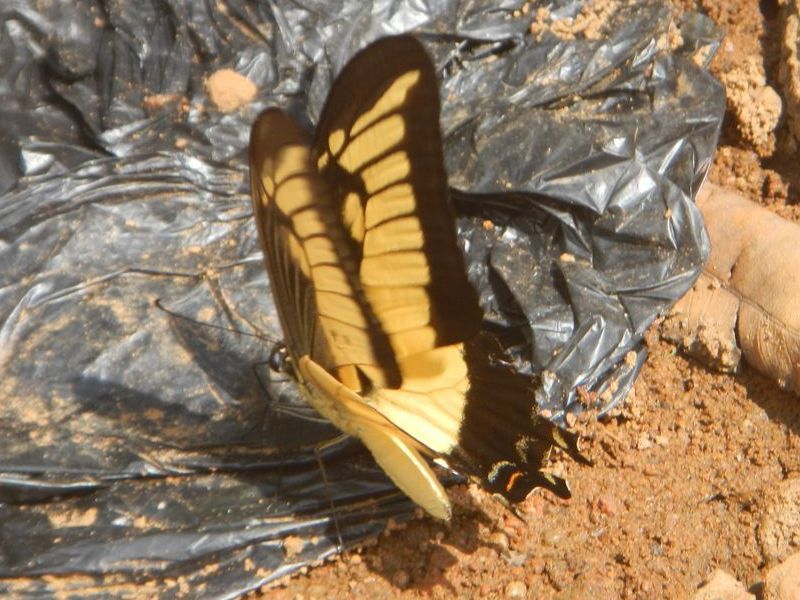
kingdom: Animalia
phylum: Arthropoda
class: Insecta
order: Lepidoptera
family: Papilionidae
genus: Papilio
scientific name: Papilio androgeus
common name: Androgeus swallowtail
